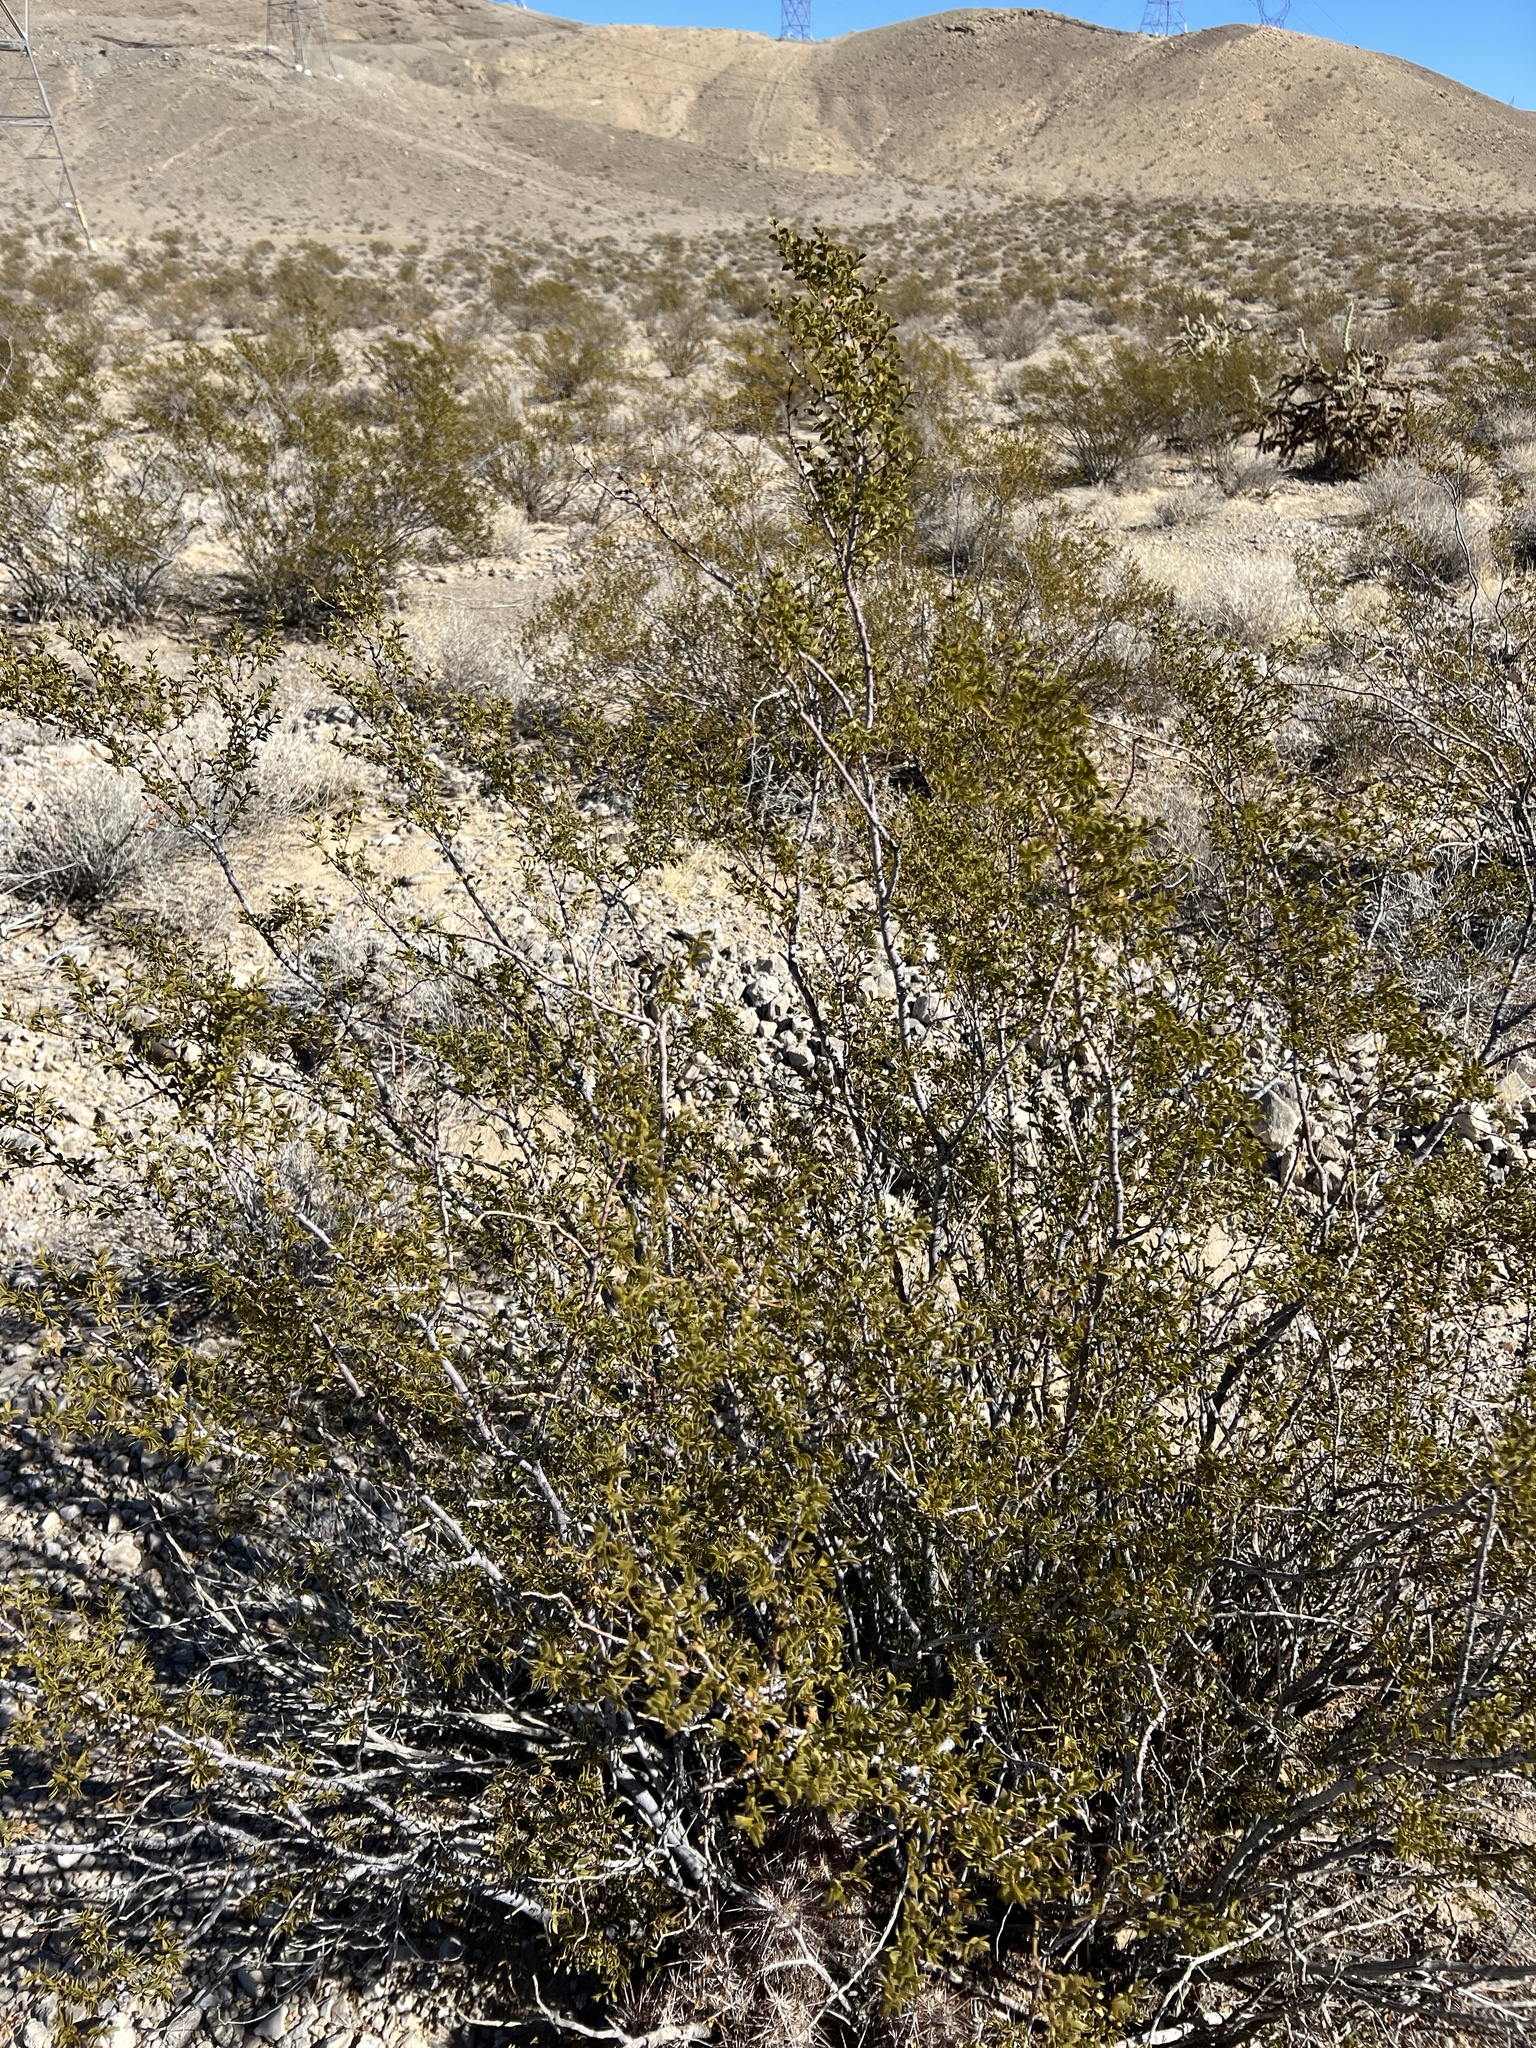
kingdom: Plantae
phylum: Tracheophyta
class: Magnoliopsida
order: Zygophyllales
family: Zygophyllaceae
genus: Larrea
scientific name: Larrea tridentata
